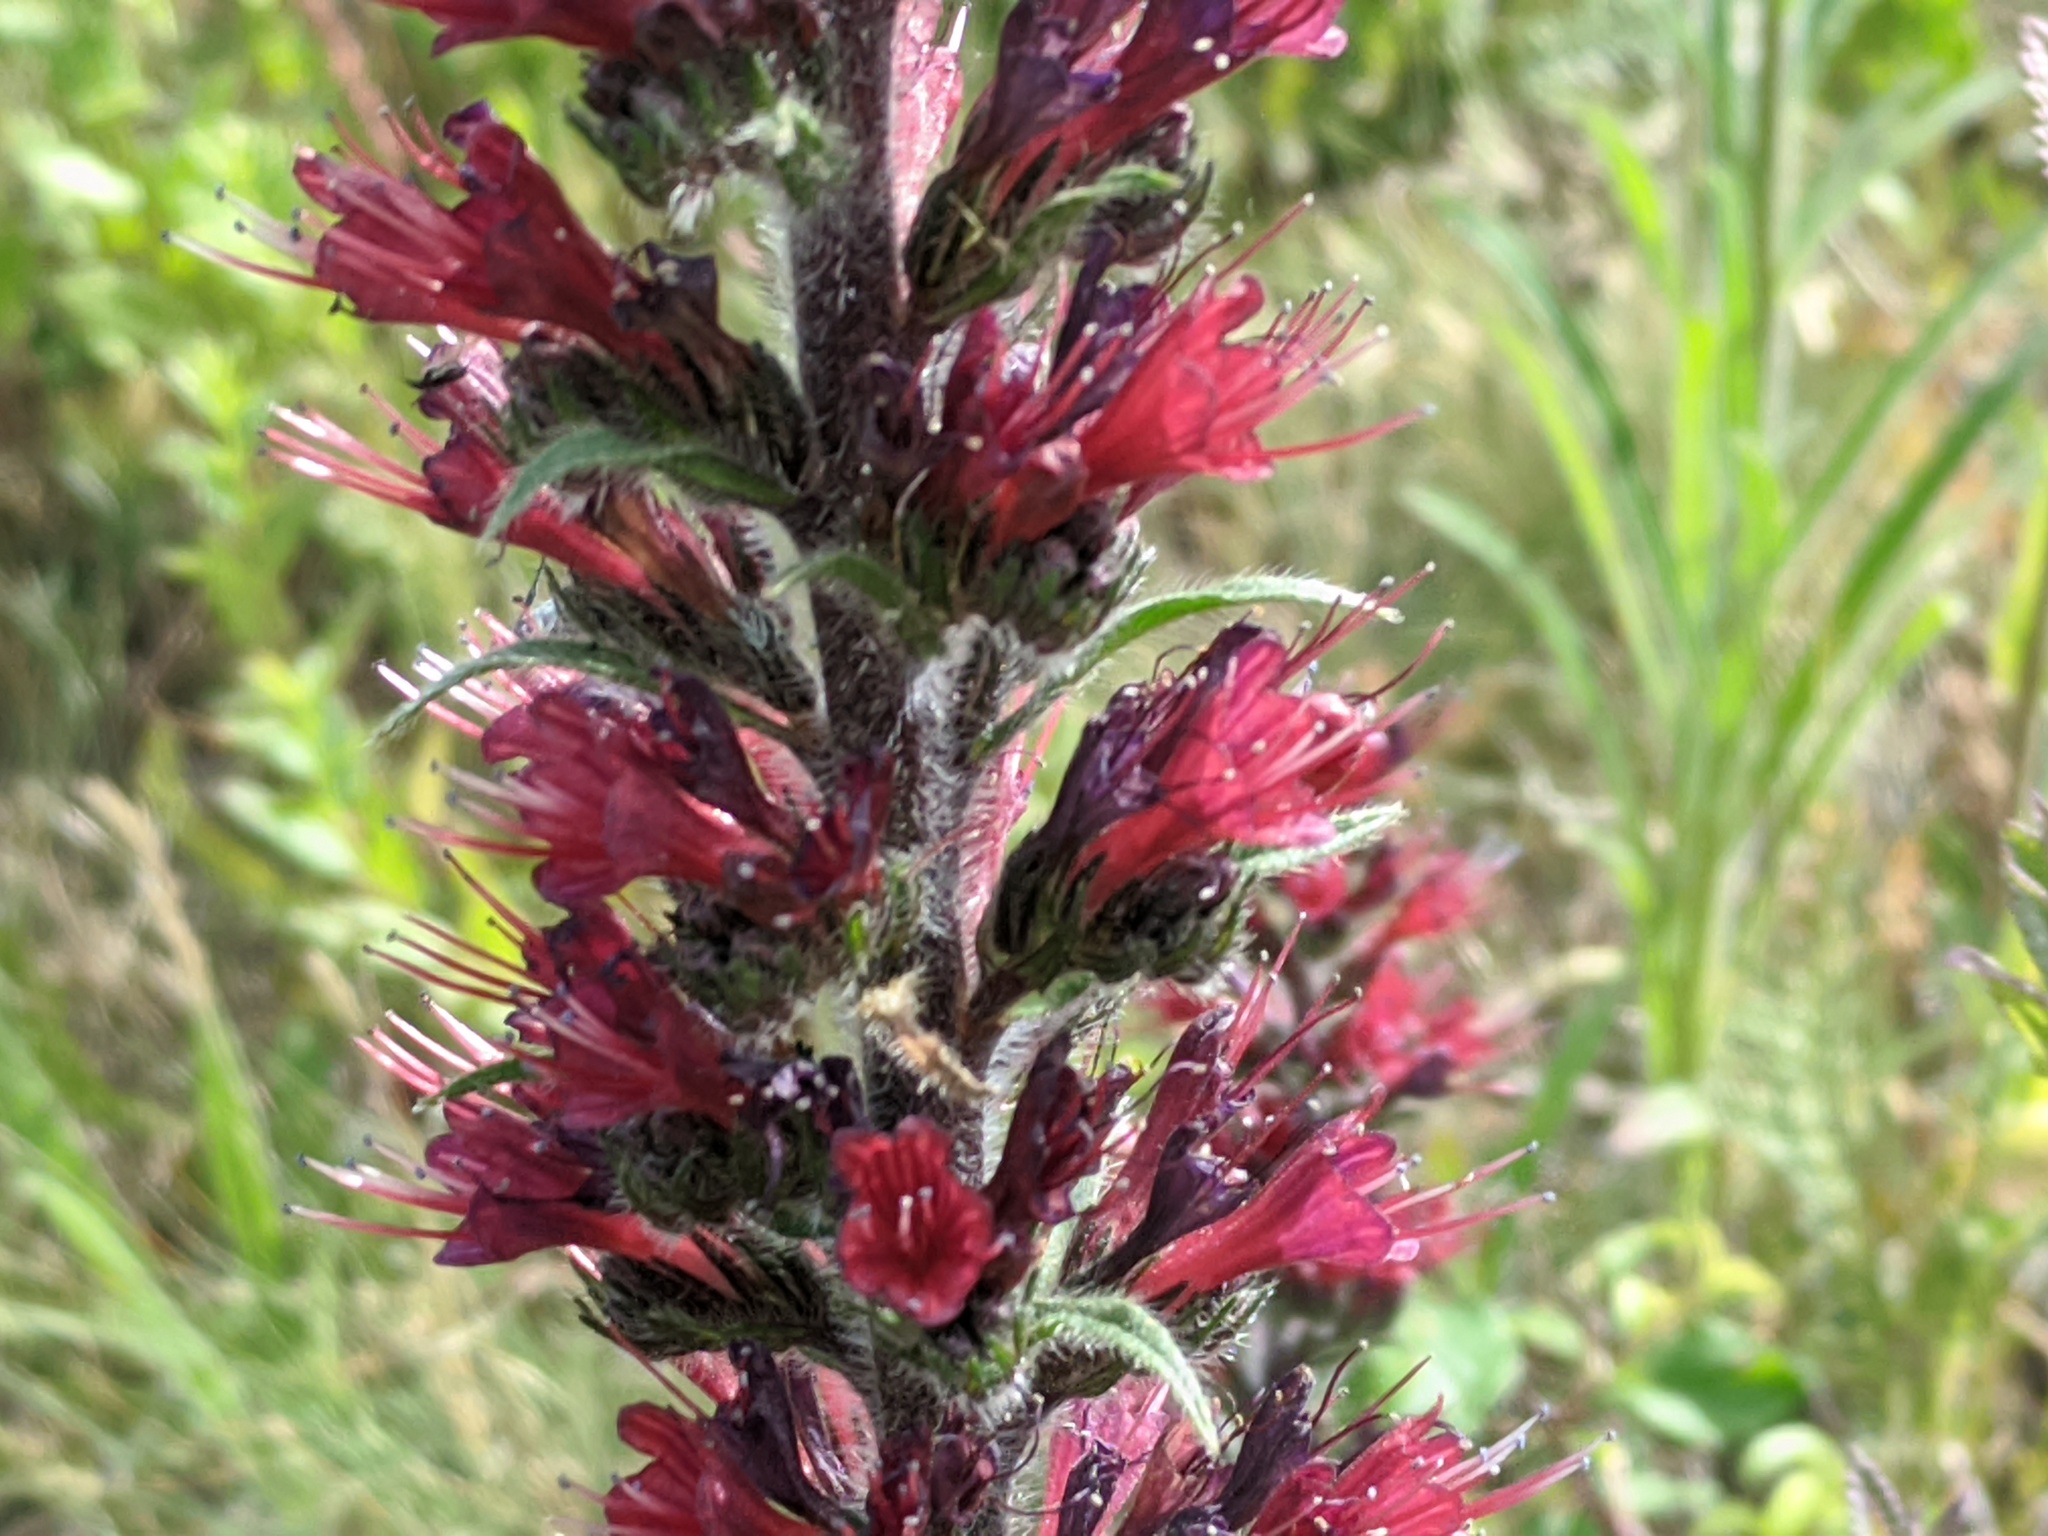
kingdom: Plantae
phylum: Tracheophyta
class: Magnoliopsida
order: Boraginales
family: Boraginaceae
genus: Pontechium
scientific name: Pontechium maculatum
